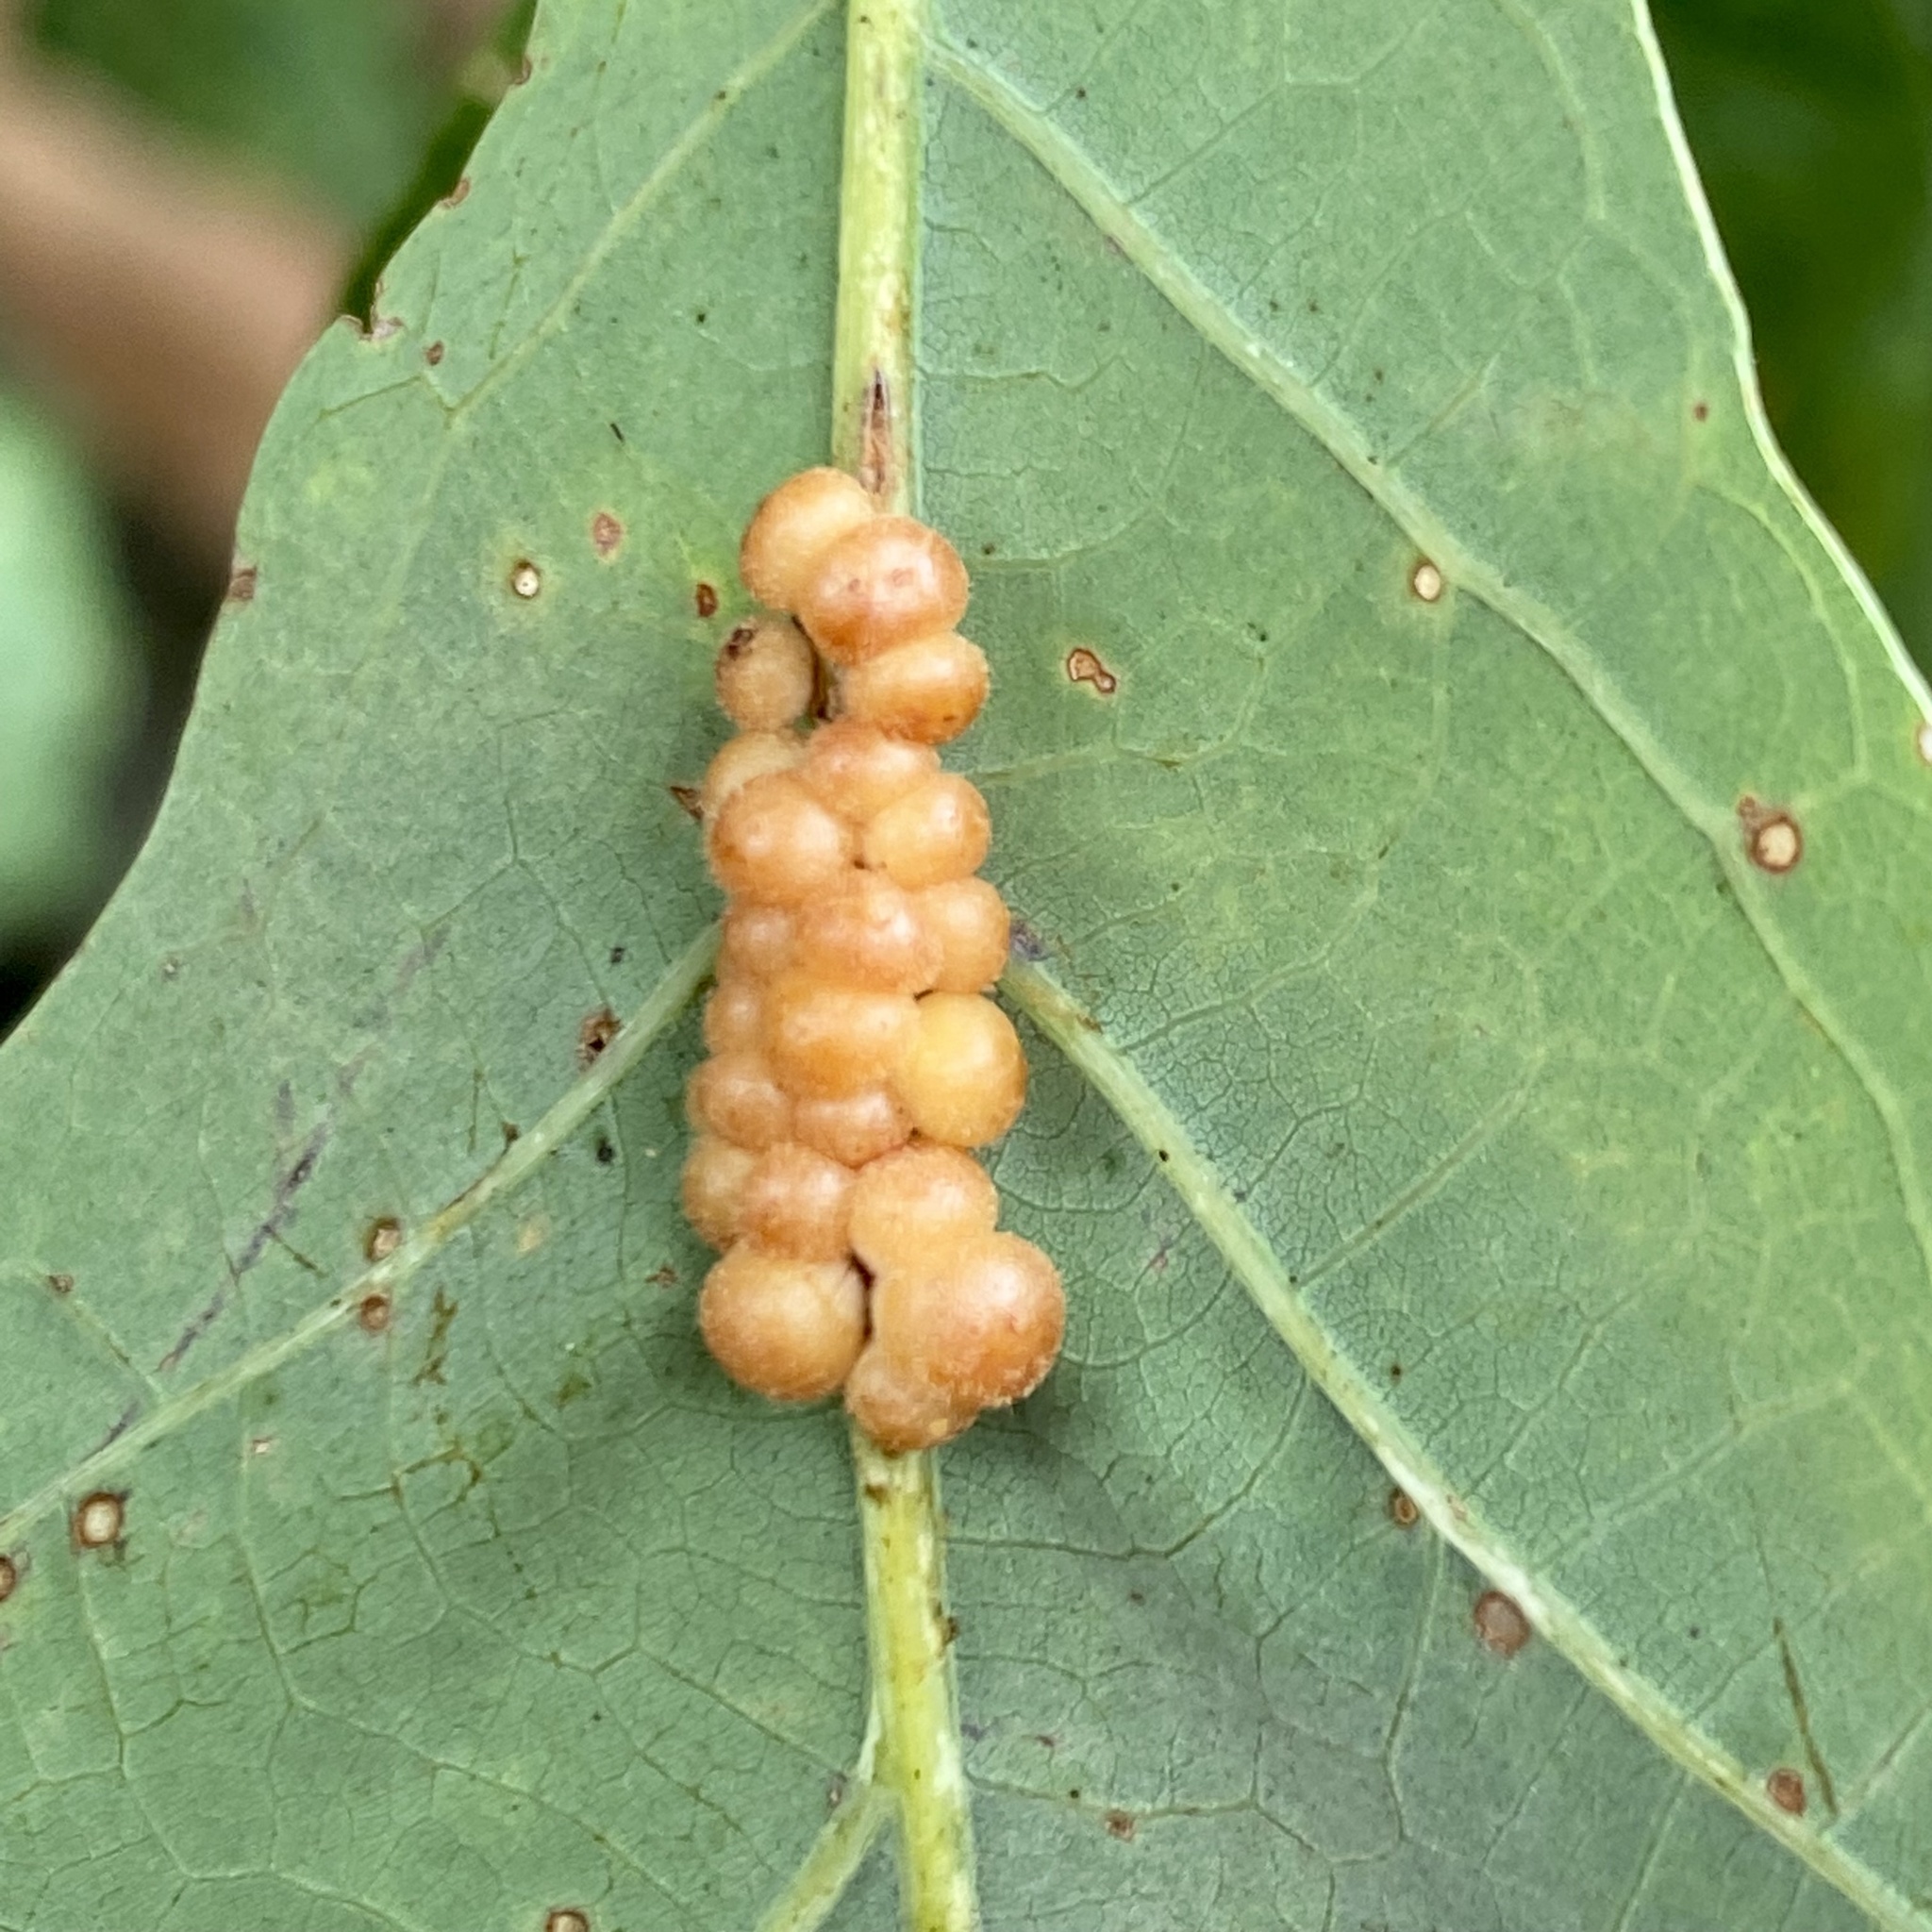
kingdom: Animalia
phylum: Arthropoda
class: Insecta
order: Hymenoptera
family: Cynipidae
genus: Andricus
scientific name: Andricus
